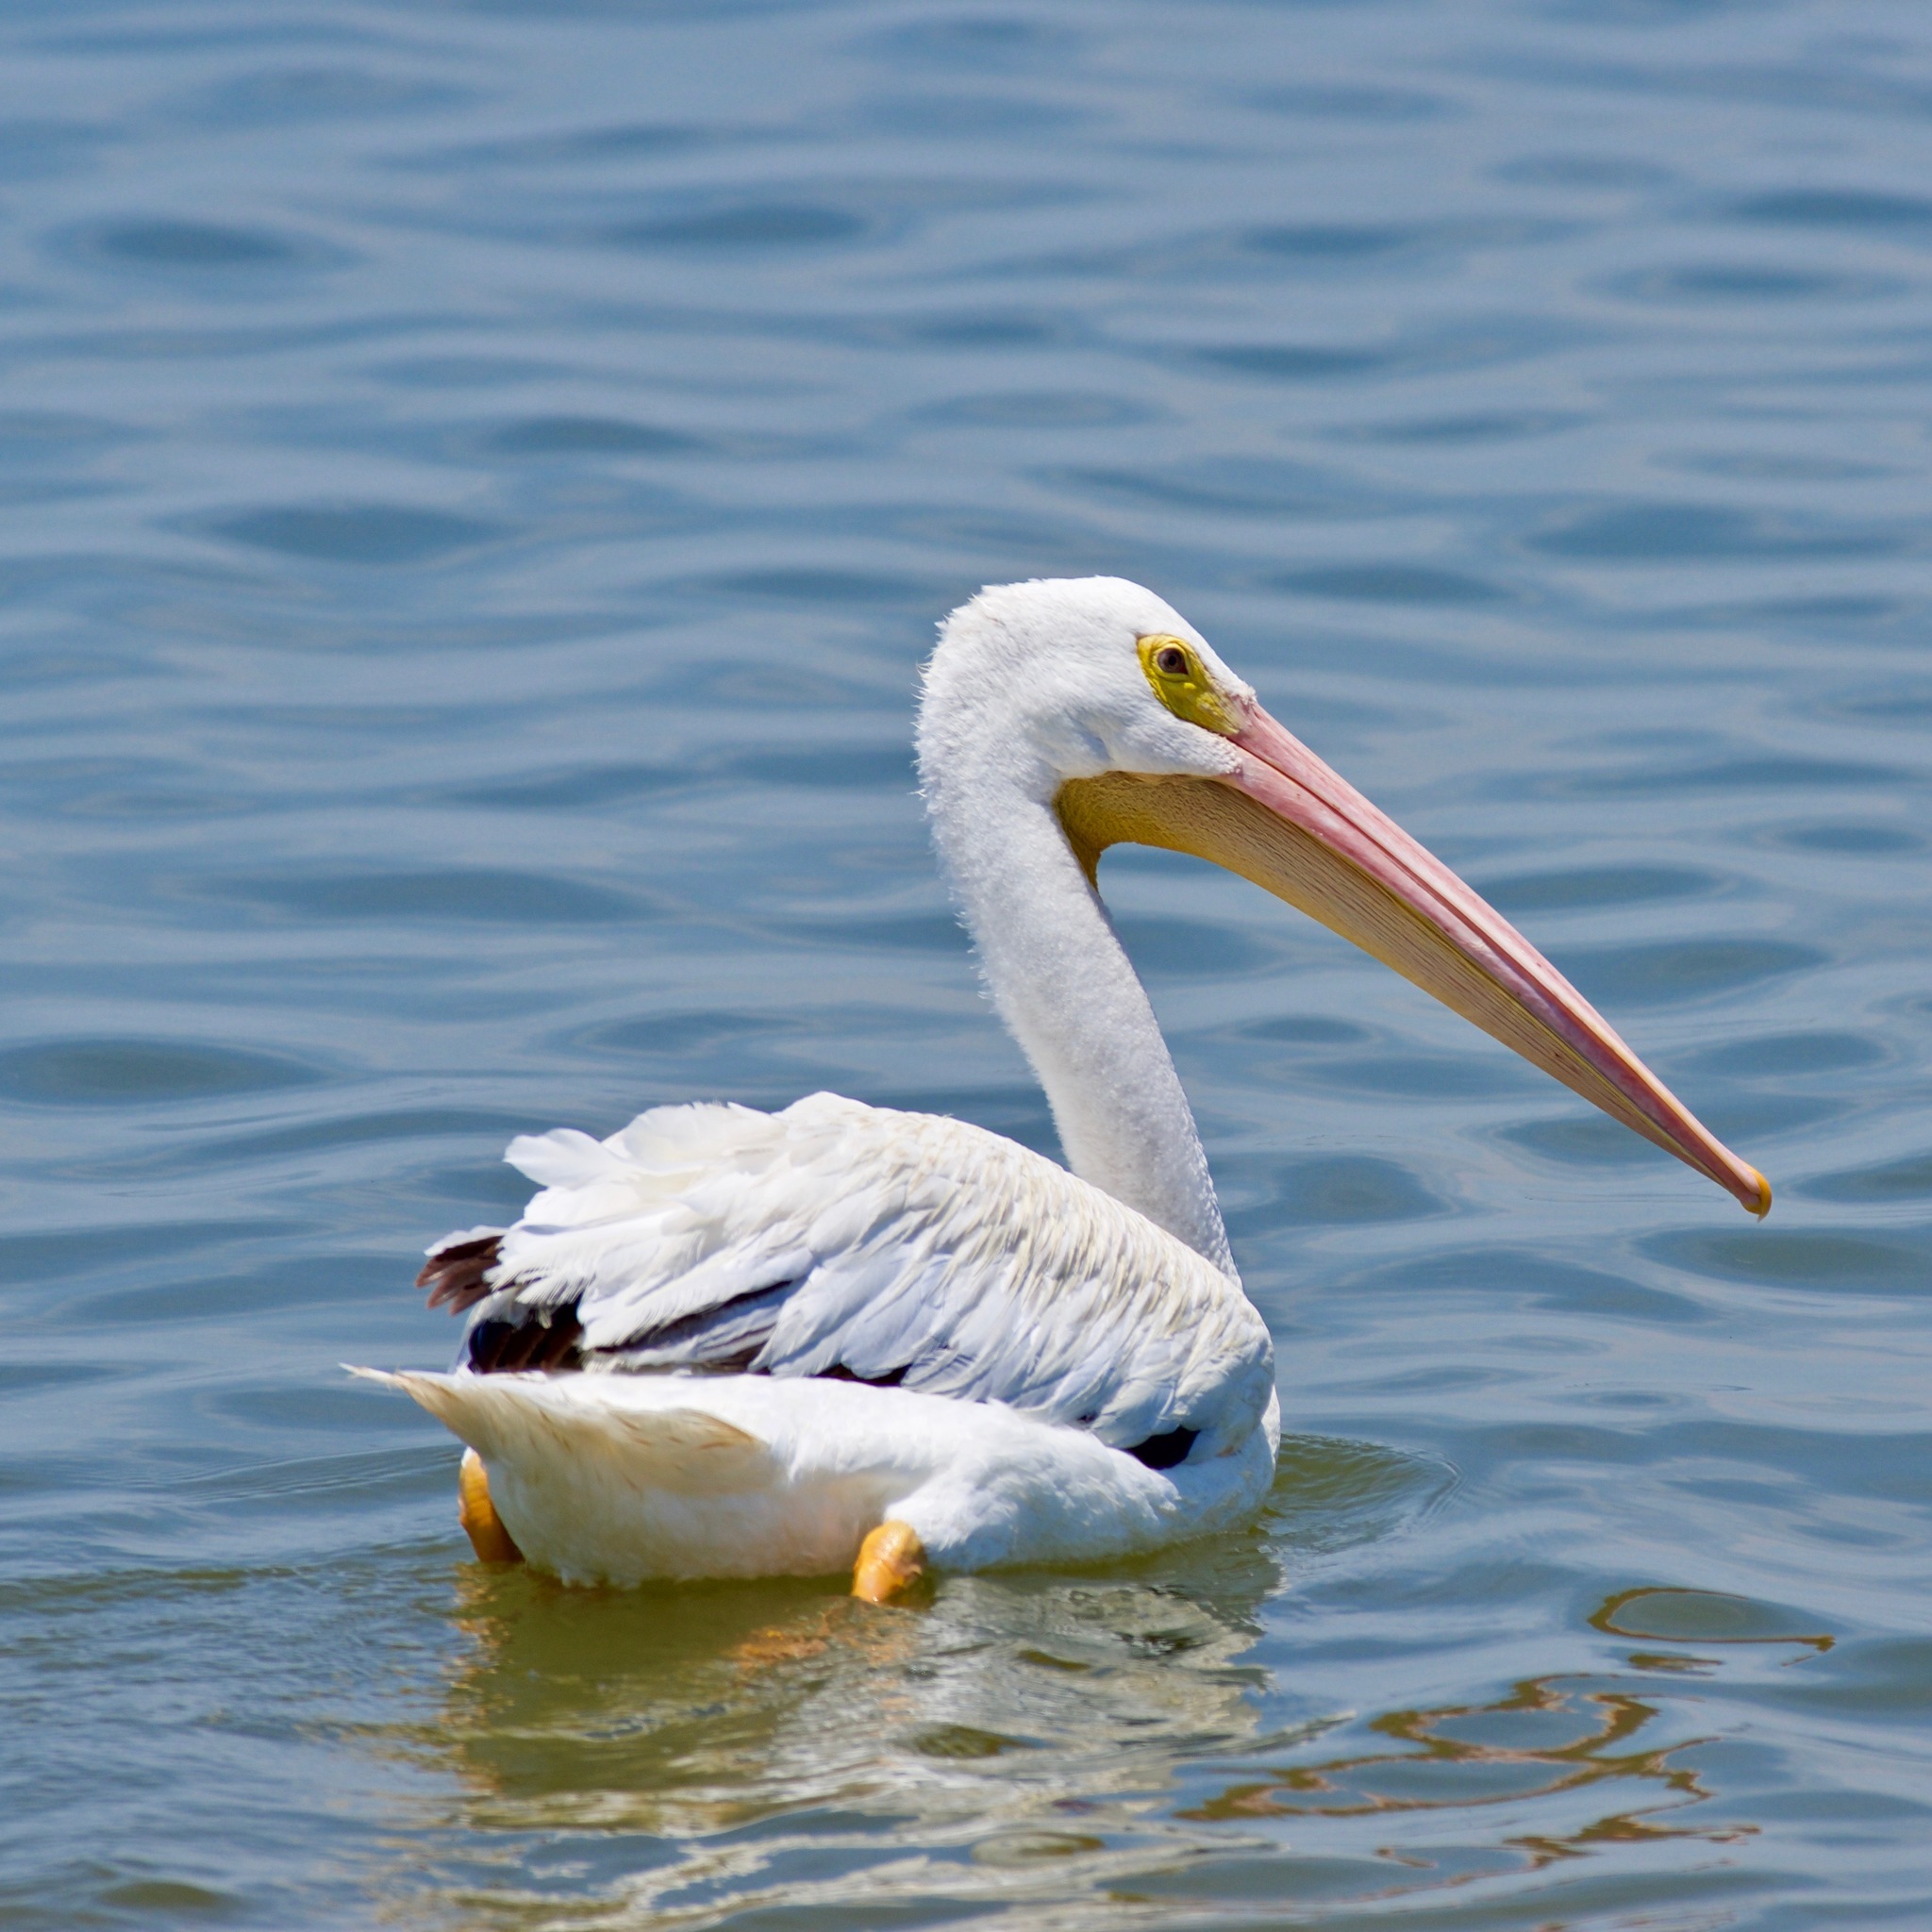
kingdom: Animalia
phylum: Chordata
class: Aves
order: Pelecaniformes
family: Pelecanidae
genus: Pelecanus
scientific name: Pelecanus erythrorhynchos
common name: American white pelican
